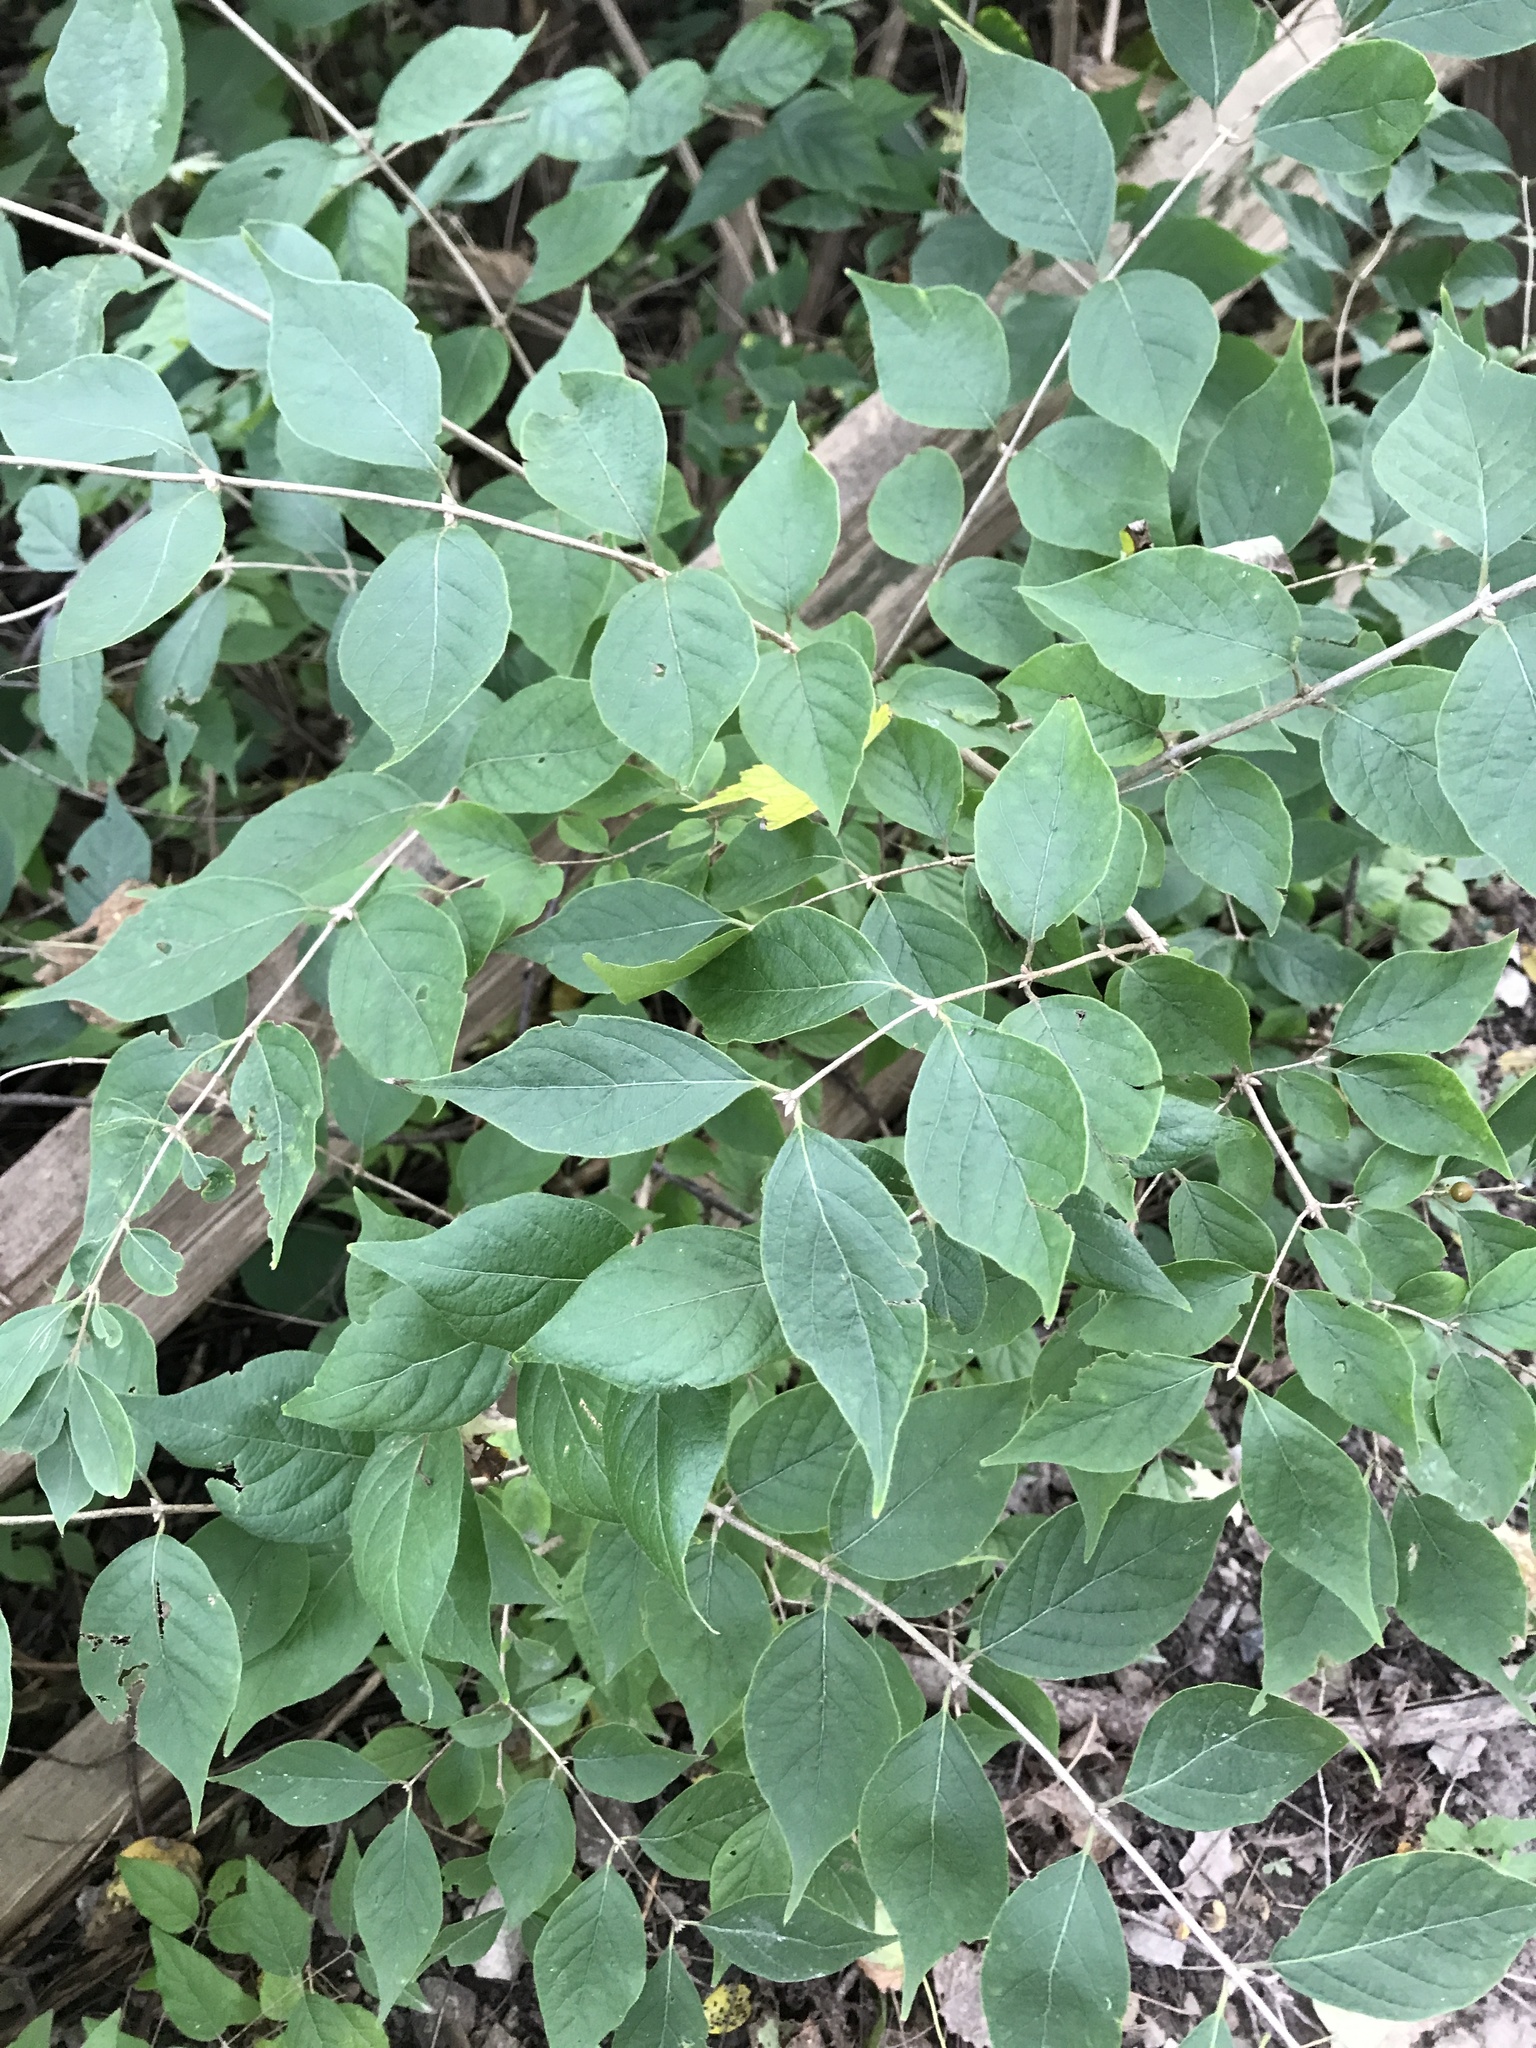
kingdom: Plantae
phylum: Tracheophyta
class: Magnoliopsida
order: Dipsacales
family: Caprifoliaceae
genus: Lonicera
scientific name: Lonicera maackii
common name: Amur honeysuckle
